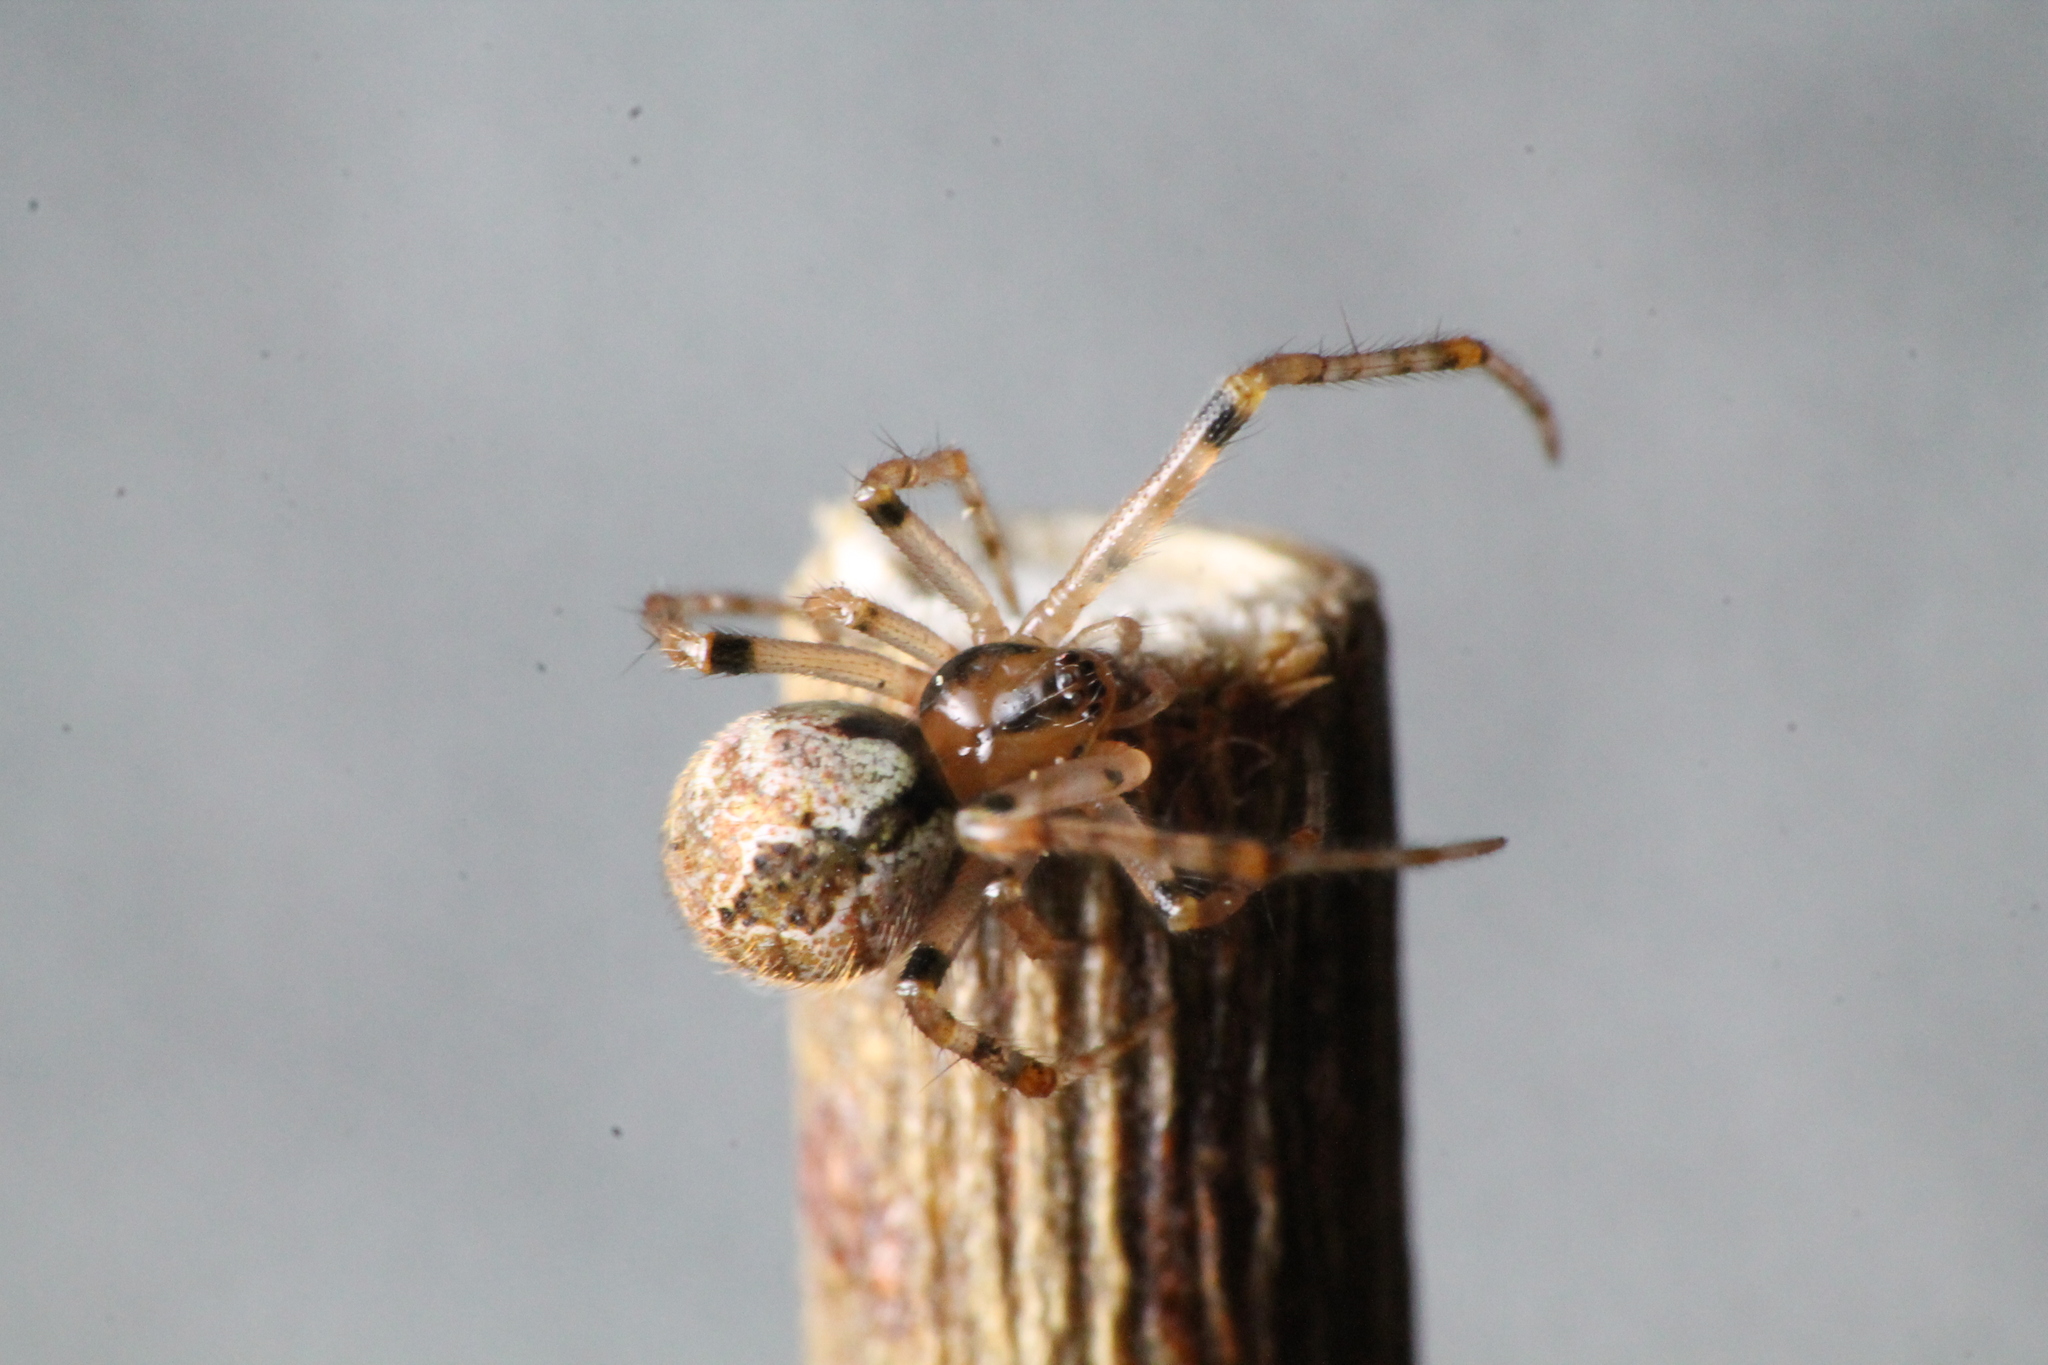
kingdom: Animalia
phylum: Arthropoda
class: Arachnida
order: Araneae
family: Theridiidae
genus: Cryptachaea
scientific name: Cryptachaea veruculata
